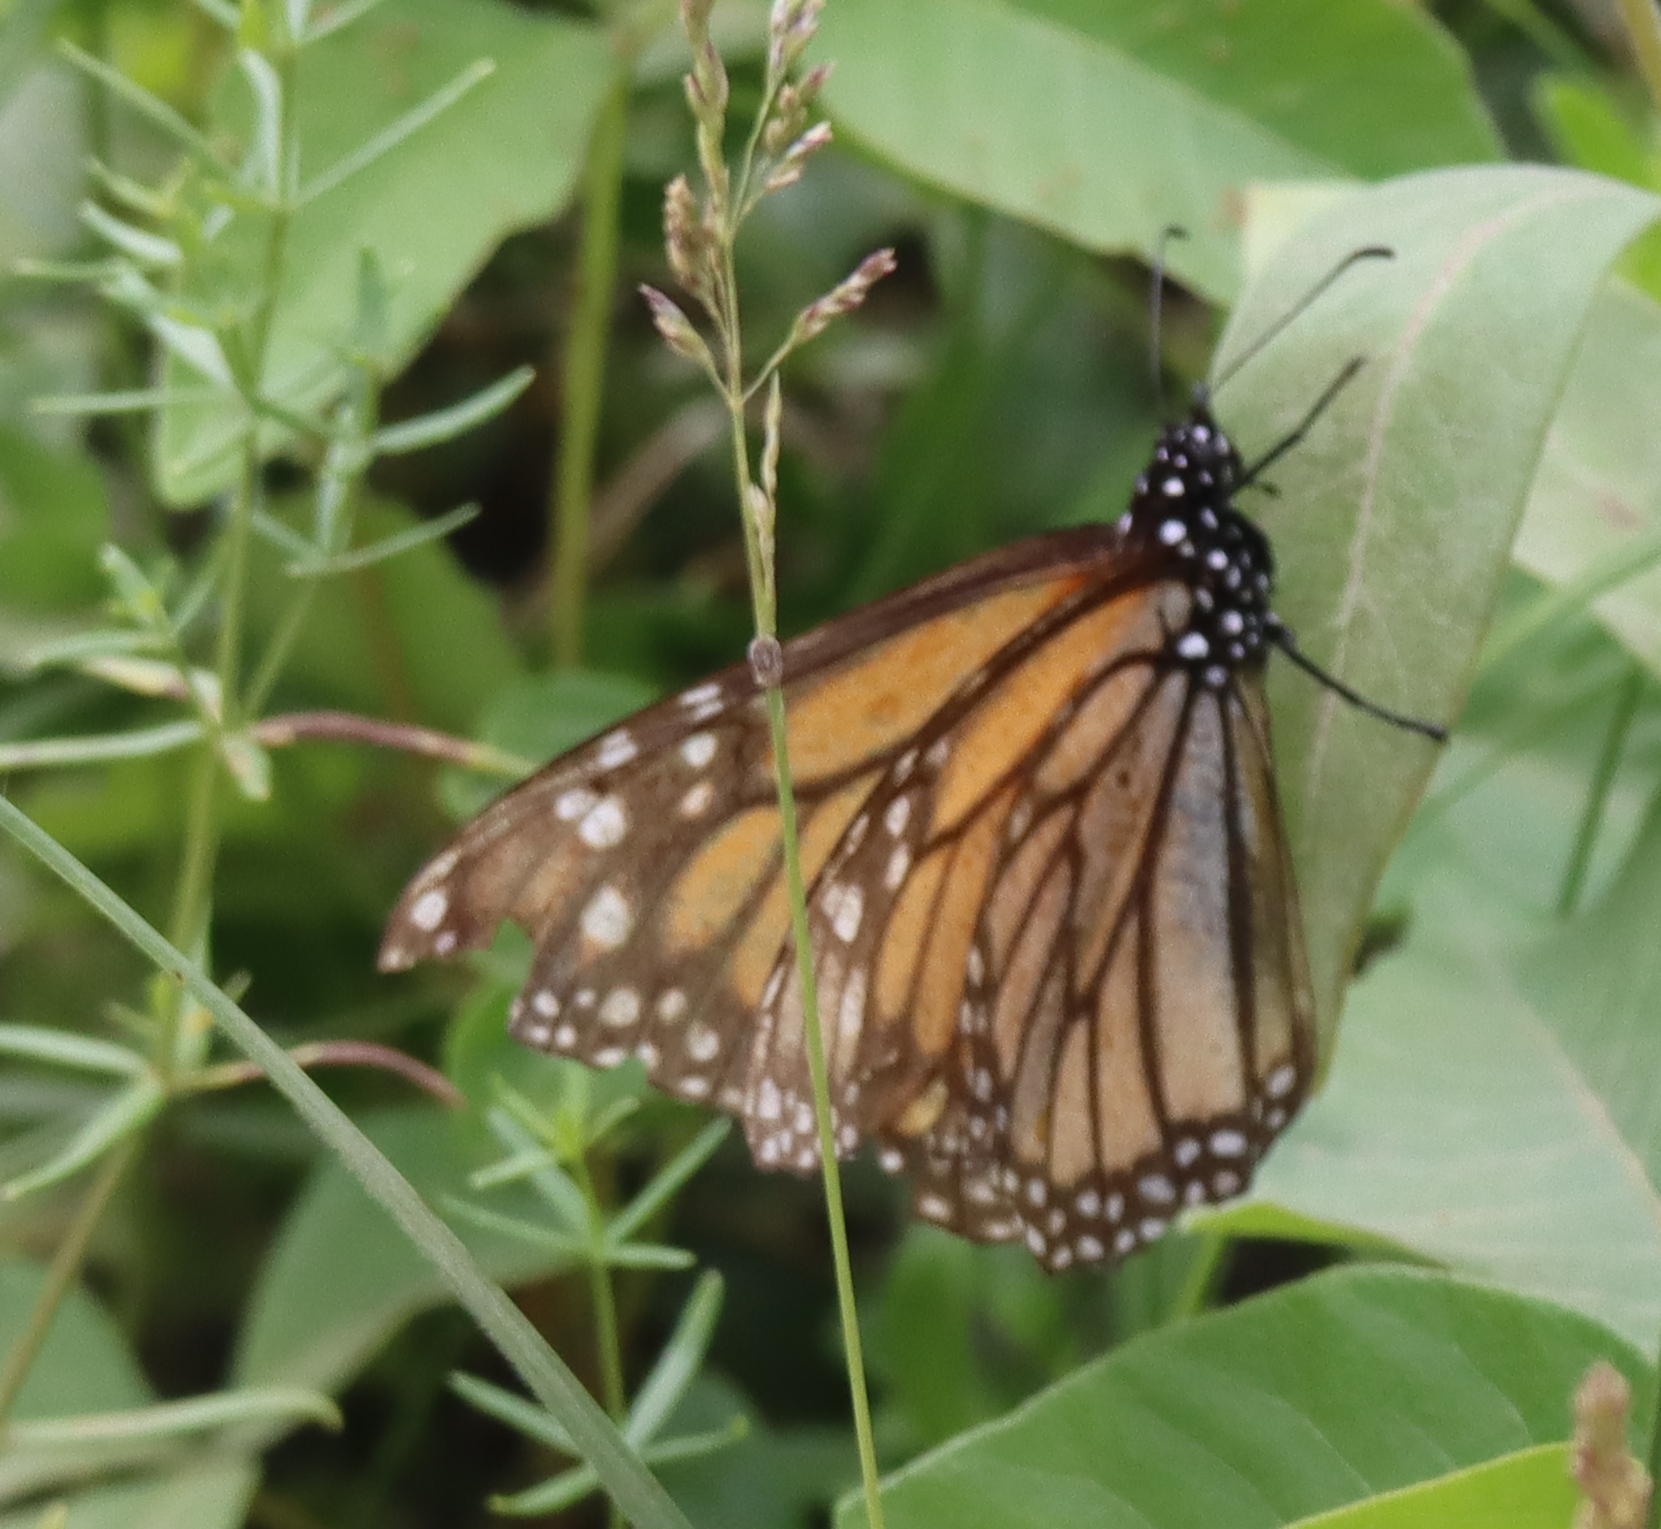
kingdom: Animalia
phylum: Arthropoda
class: Insecta
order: Lepidoptera
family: Nymphalidae
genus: Danaus
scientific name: Danaus plexippus
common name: Monarch
